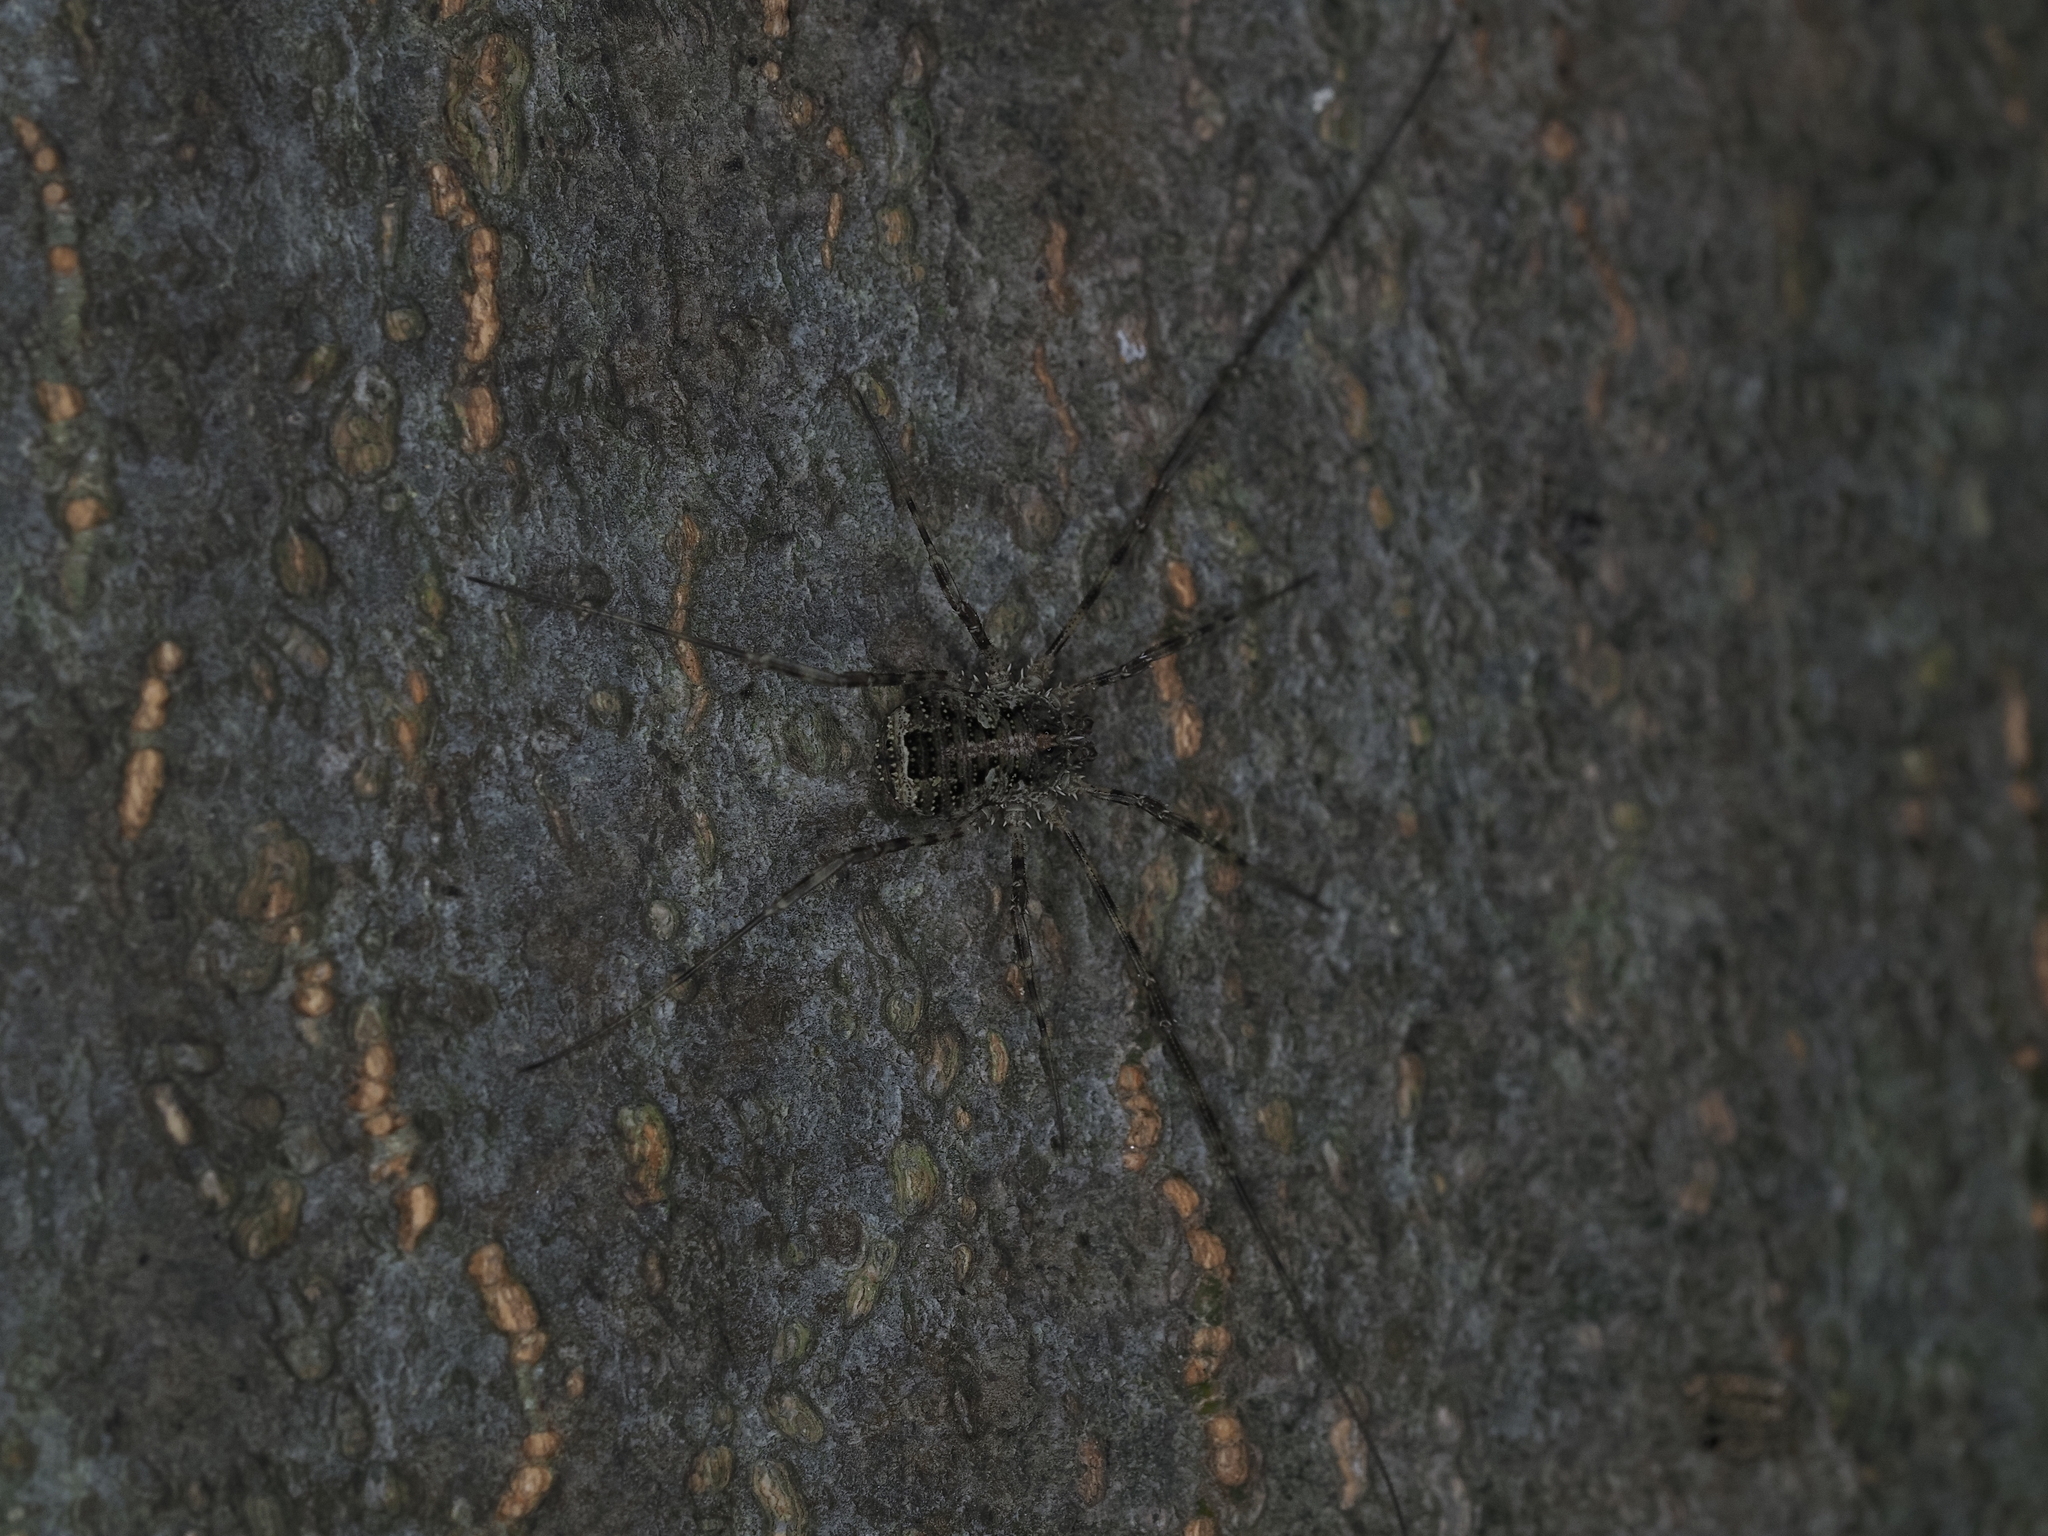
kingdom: Animalia
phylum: Arthropoda
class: Arachnida
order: Opiliones
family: Phalangiidae
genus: Lacinius
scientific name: Lacinius dentiger
